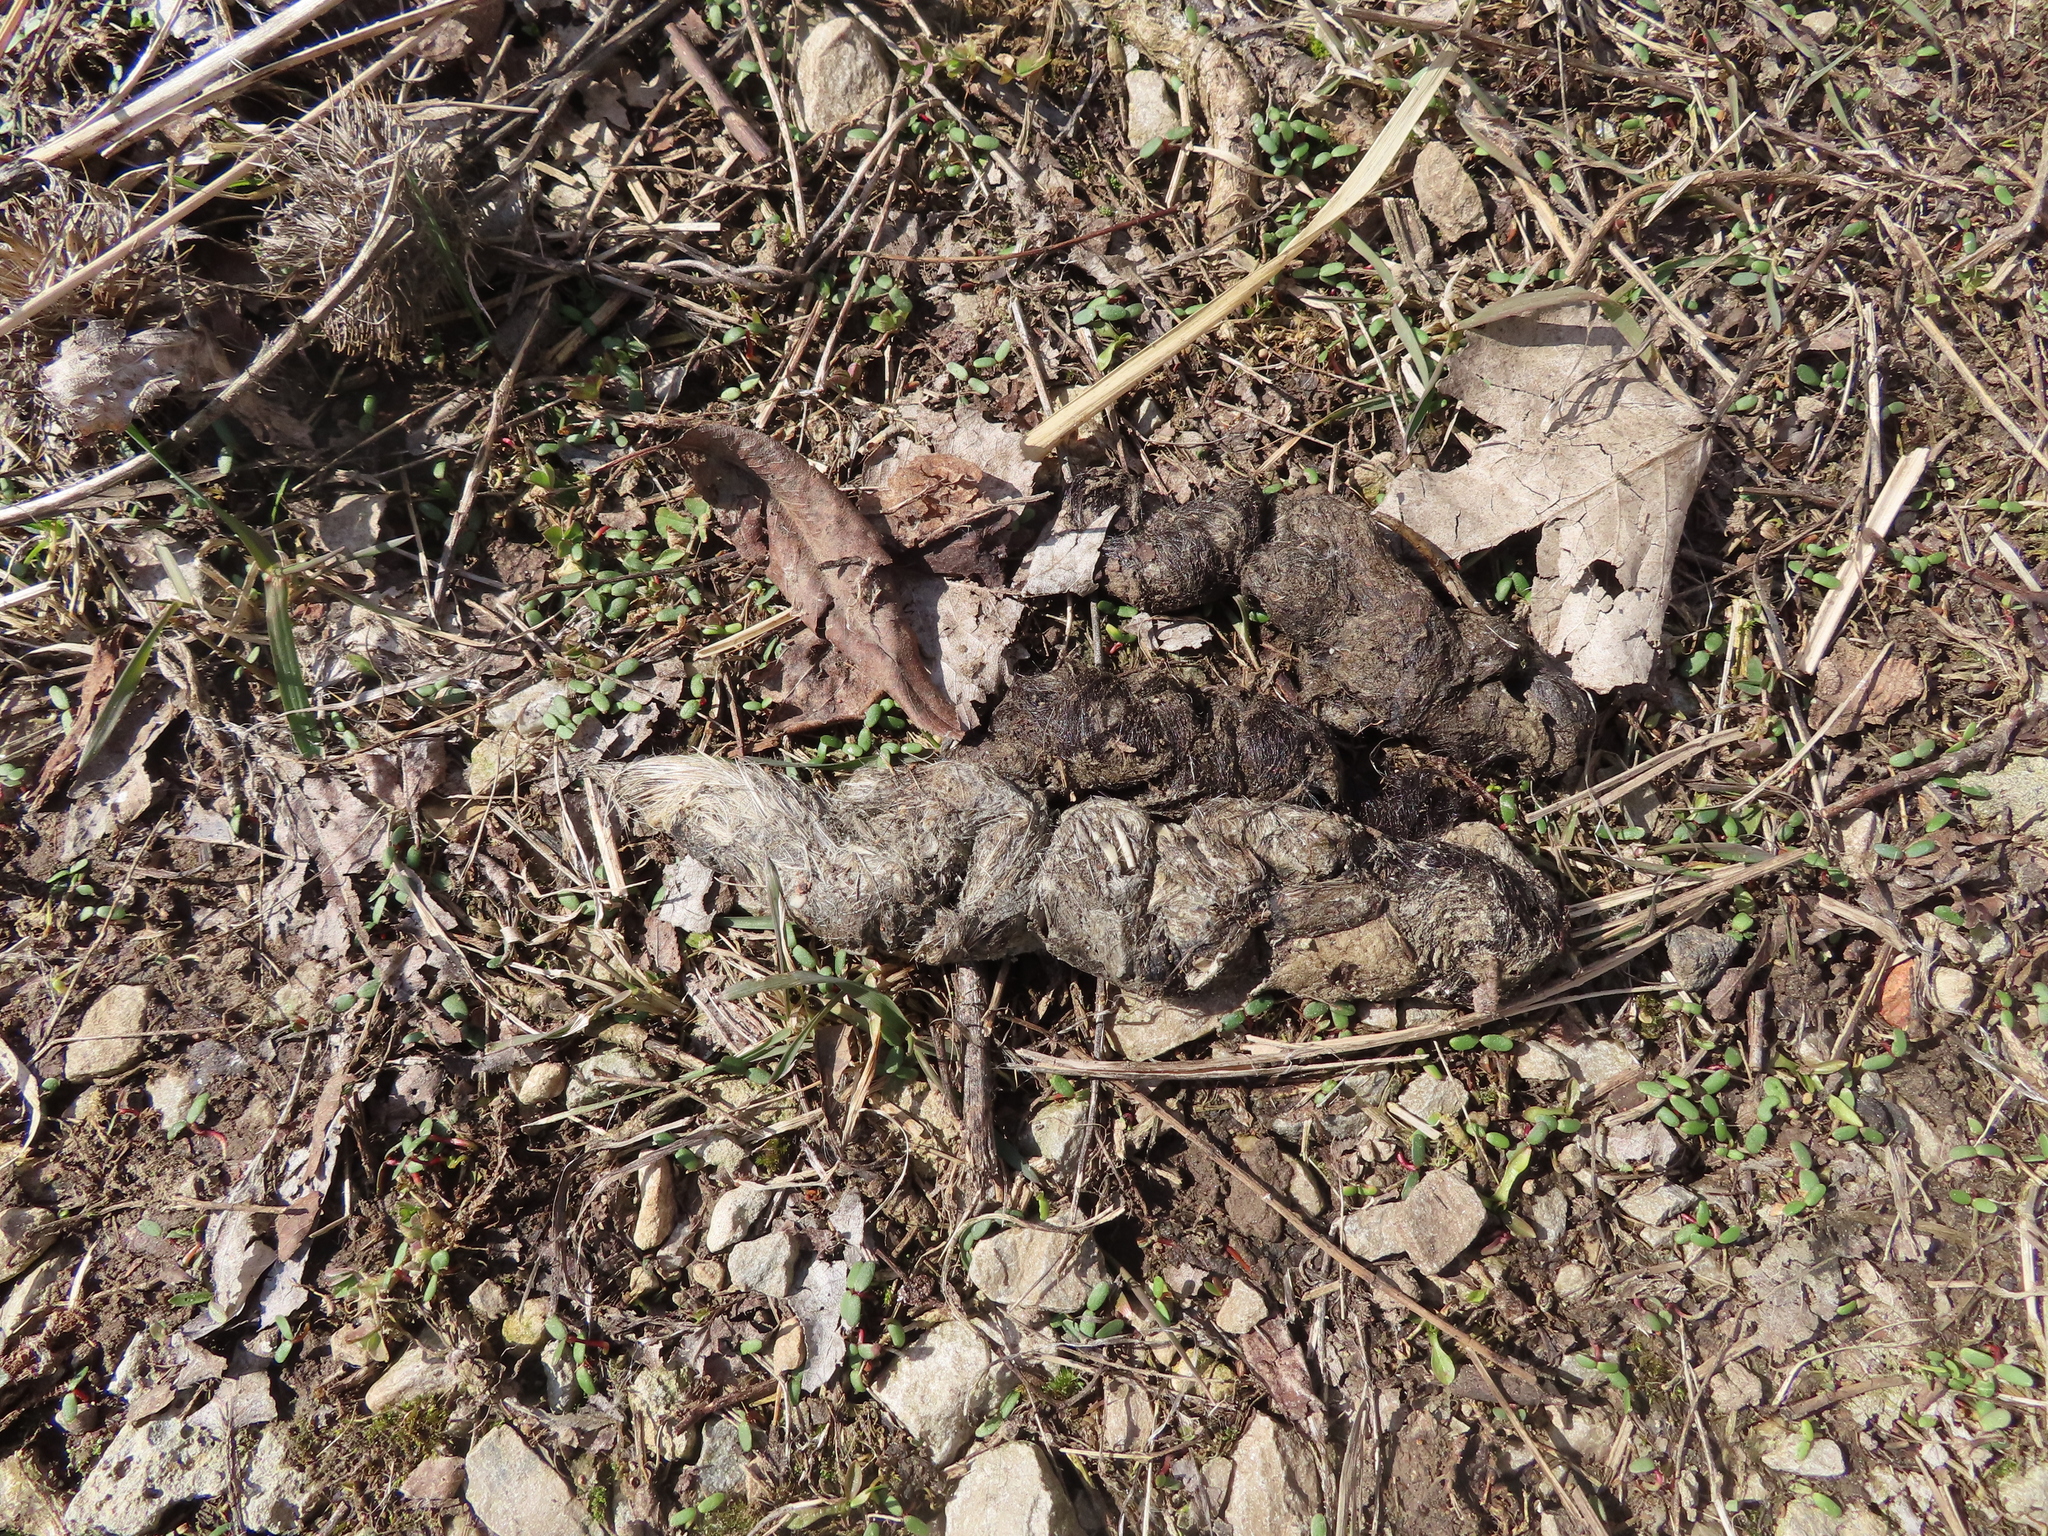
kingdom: Animalia
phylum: Chordata
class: Mammalia
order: Carnivora
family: Canidae
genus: Canis
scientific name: Canis latrans
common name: Coyote
